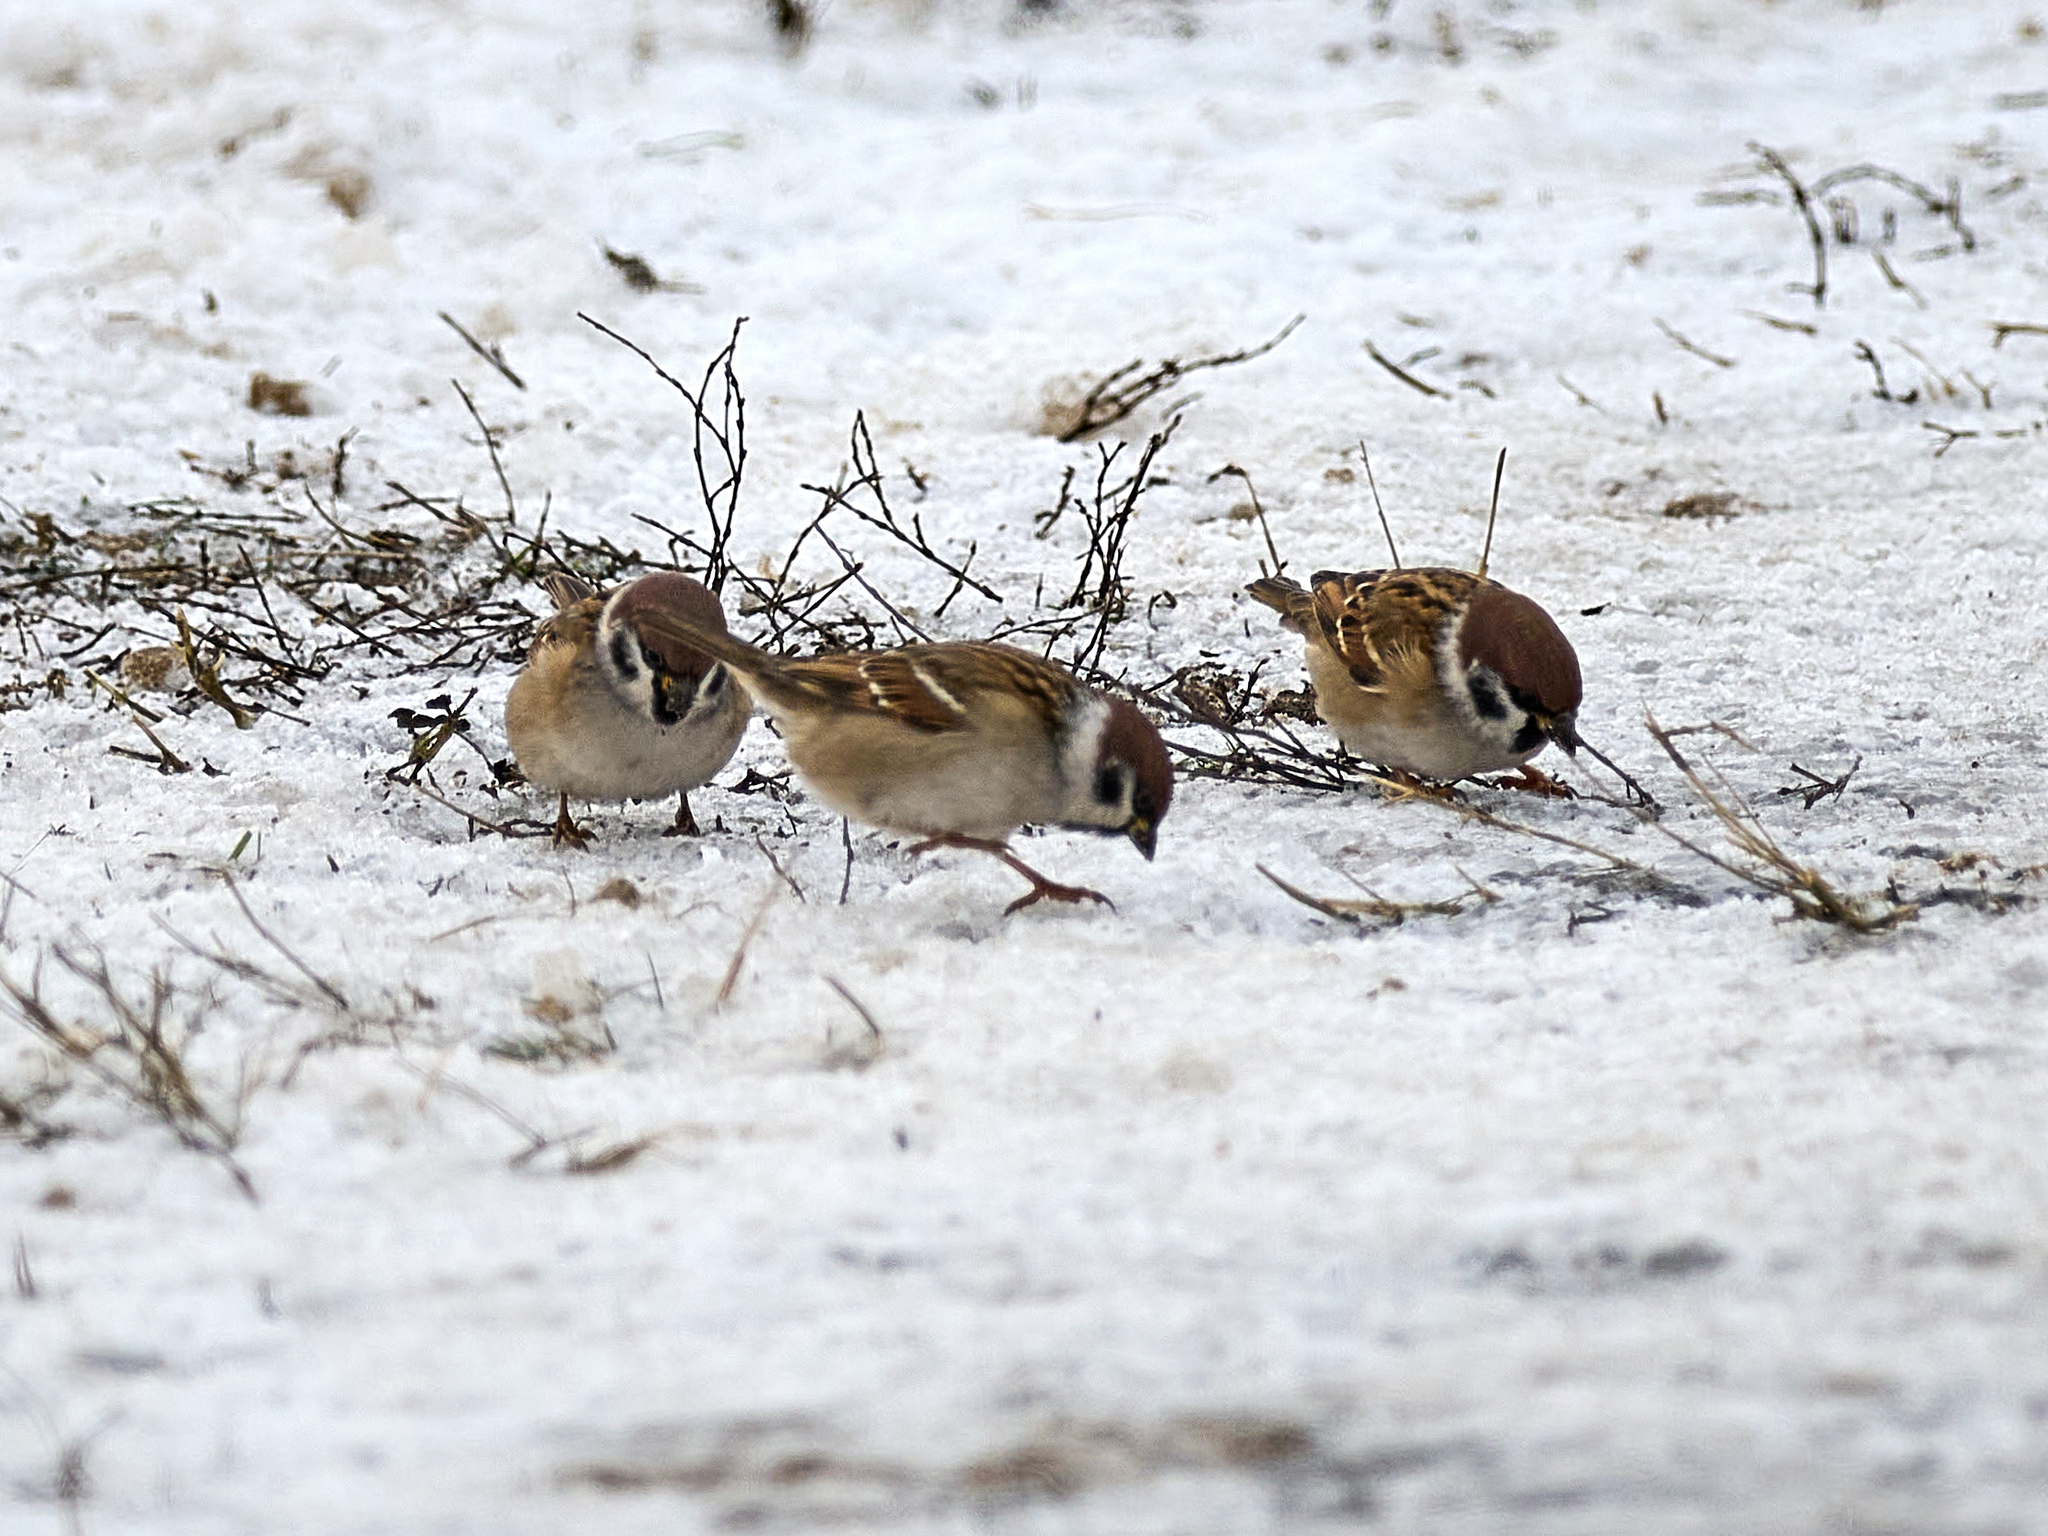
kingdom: Animalia
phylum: Chordata
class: Aves
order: Passeriformes
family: Passeridae
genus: Passer
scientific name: Passer montanus
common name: Eurasian tree sparrow
